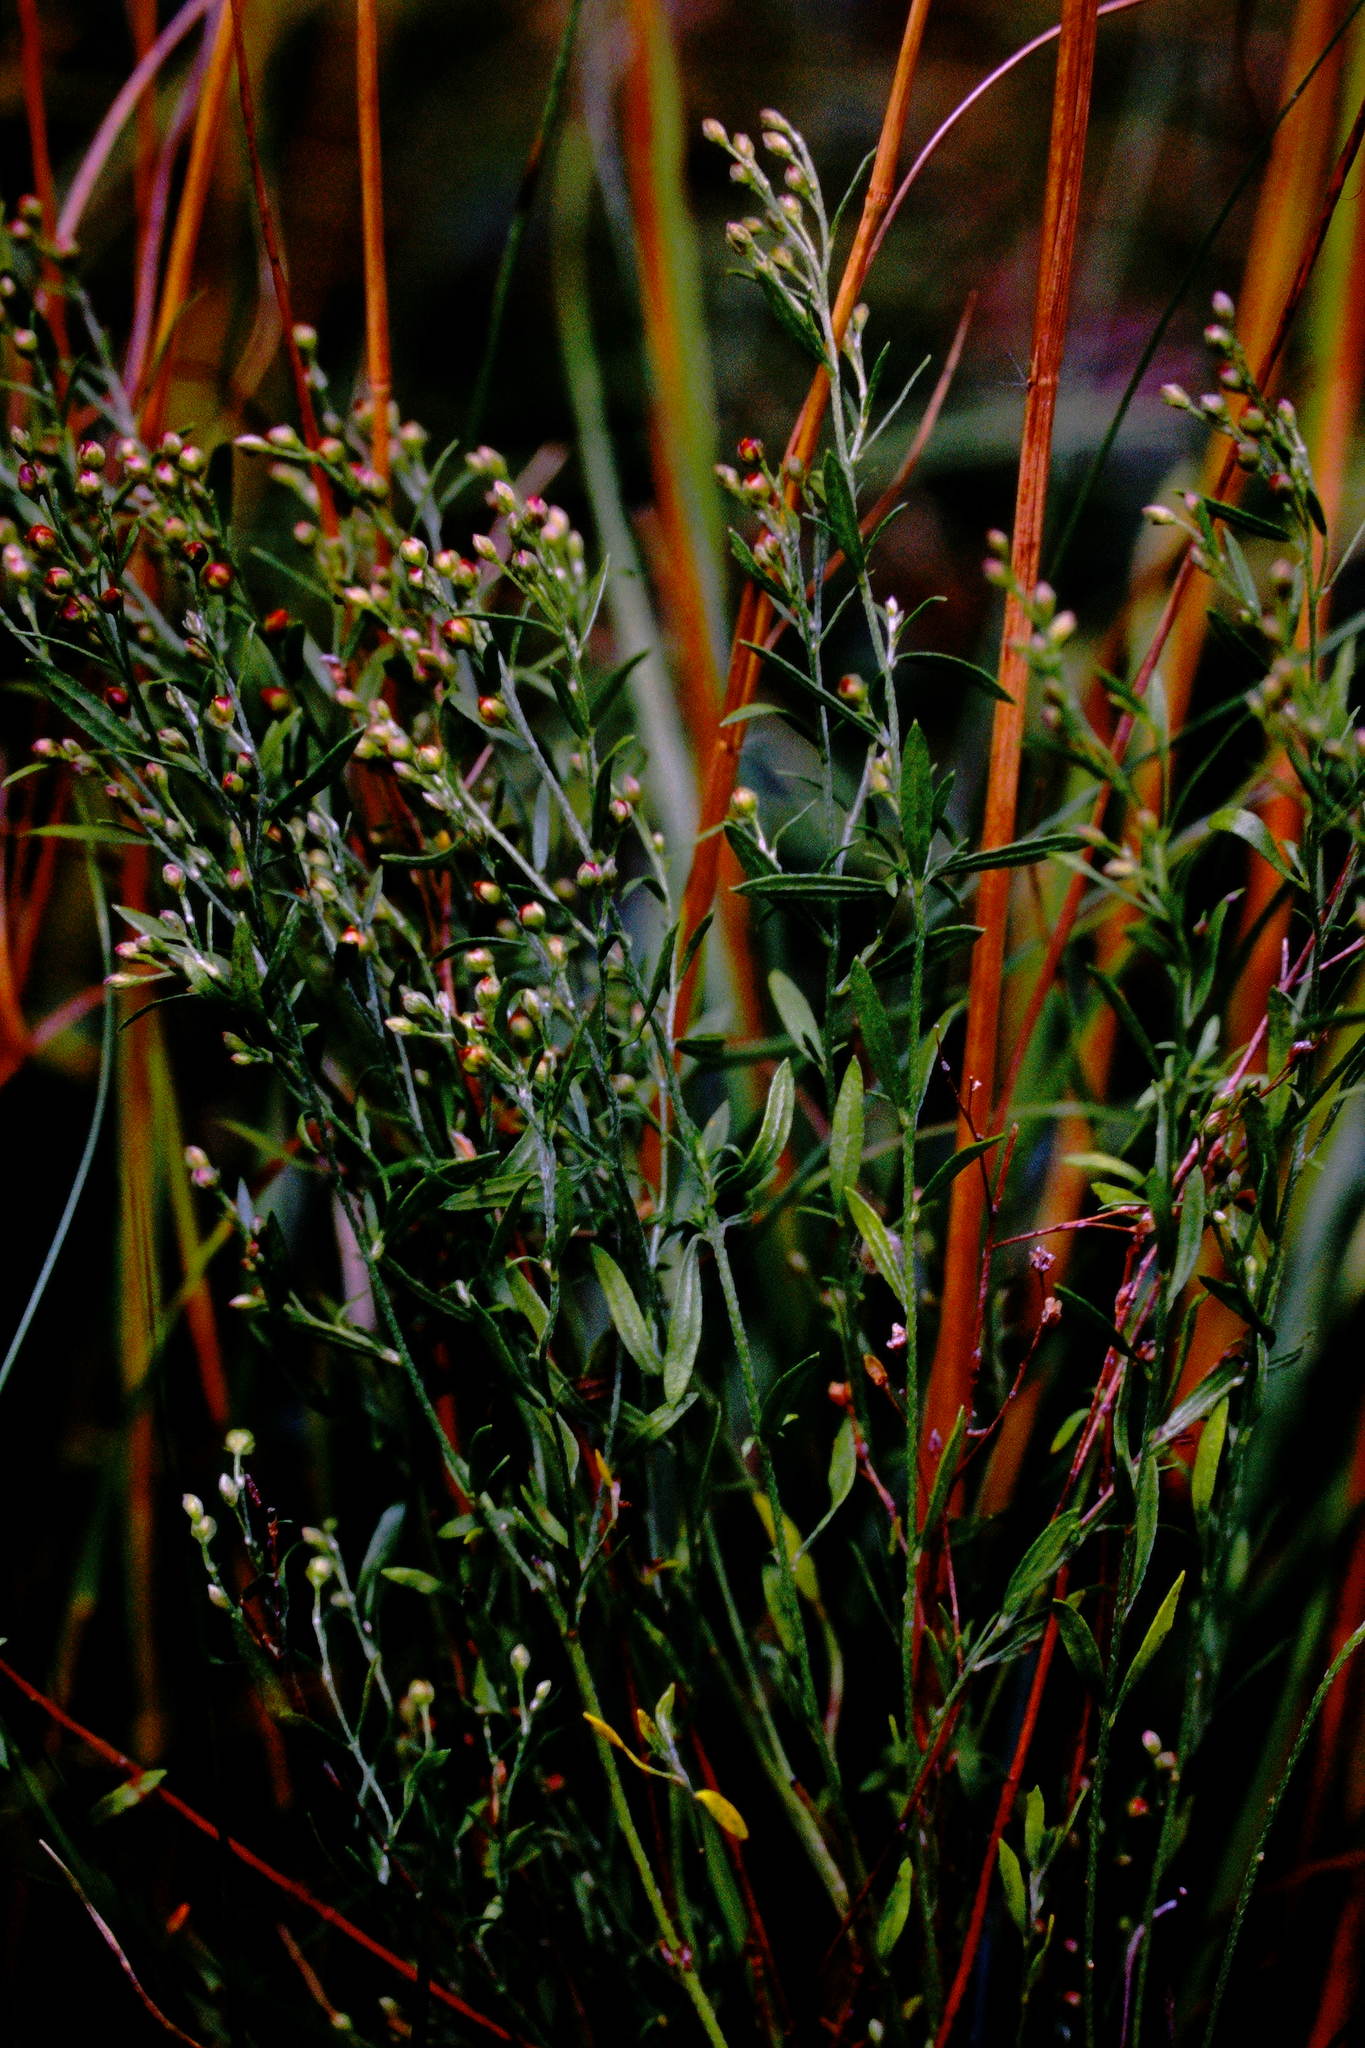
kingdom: Plantae
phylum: Tracheophyta
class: Magnoliopsida
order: Malvales
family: Cistaceae
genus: Lechea
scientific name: Lechea intermedia
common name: Intermediate pinweed
